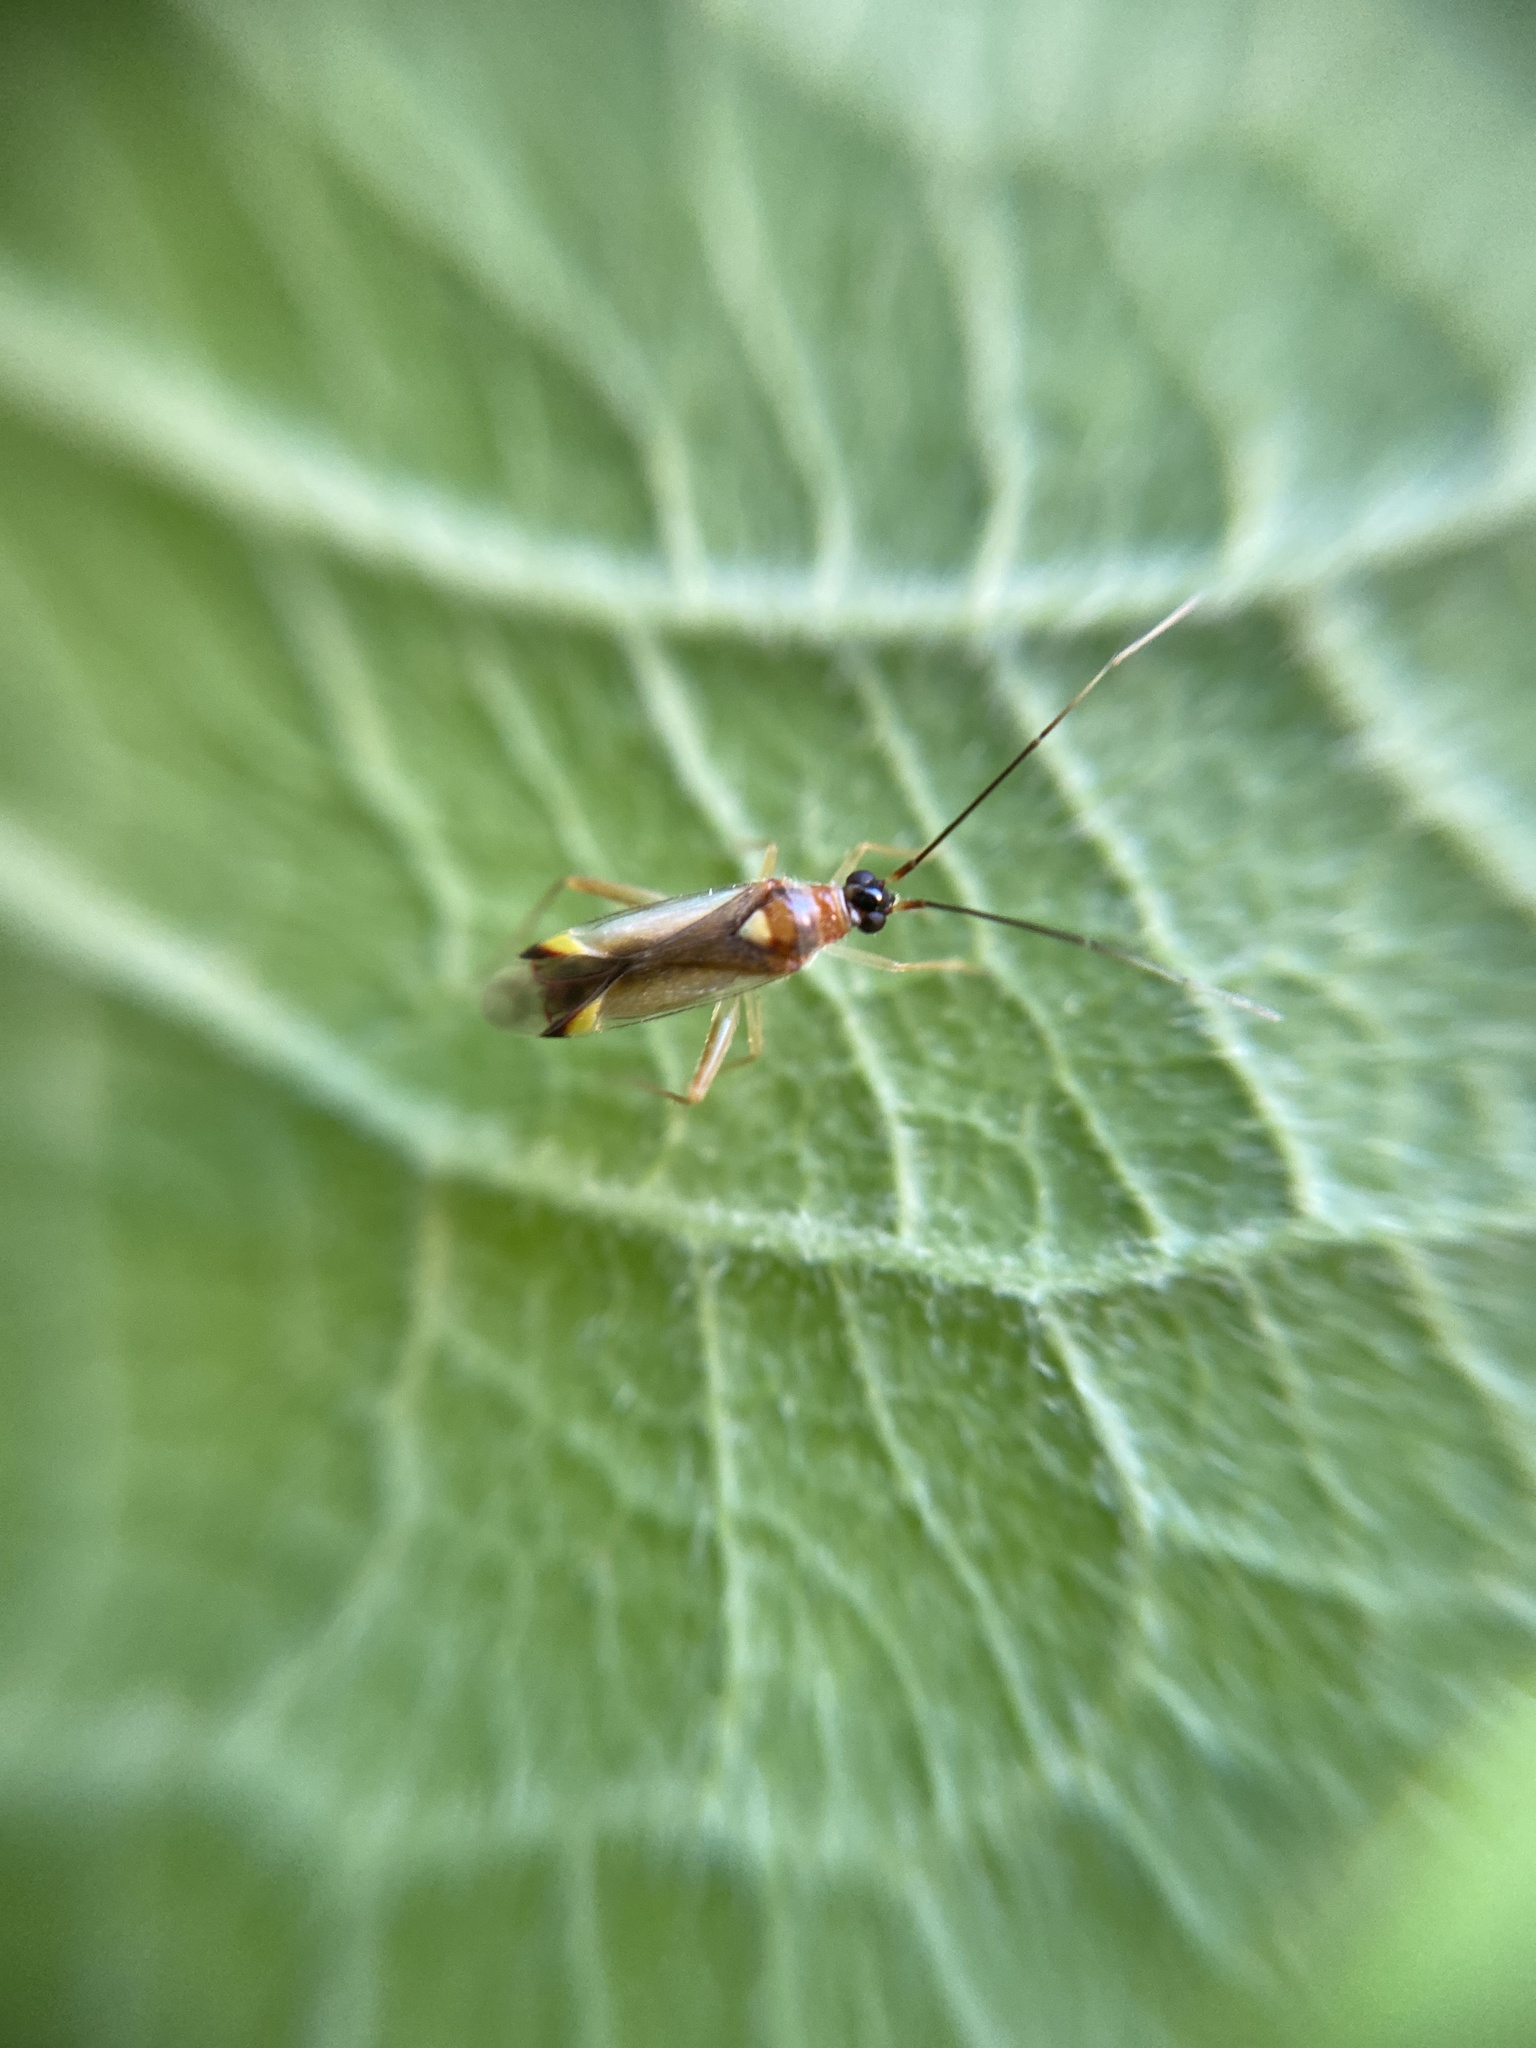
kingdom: Animalia
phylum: Arthropoda
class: Insecta
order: Hemiptera
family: Miridae
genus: Campyloneura
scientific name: Campyloneura virgula
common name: Predatory bug
